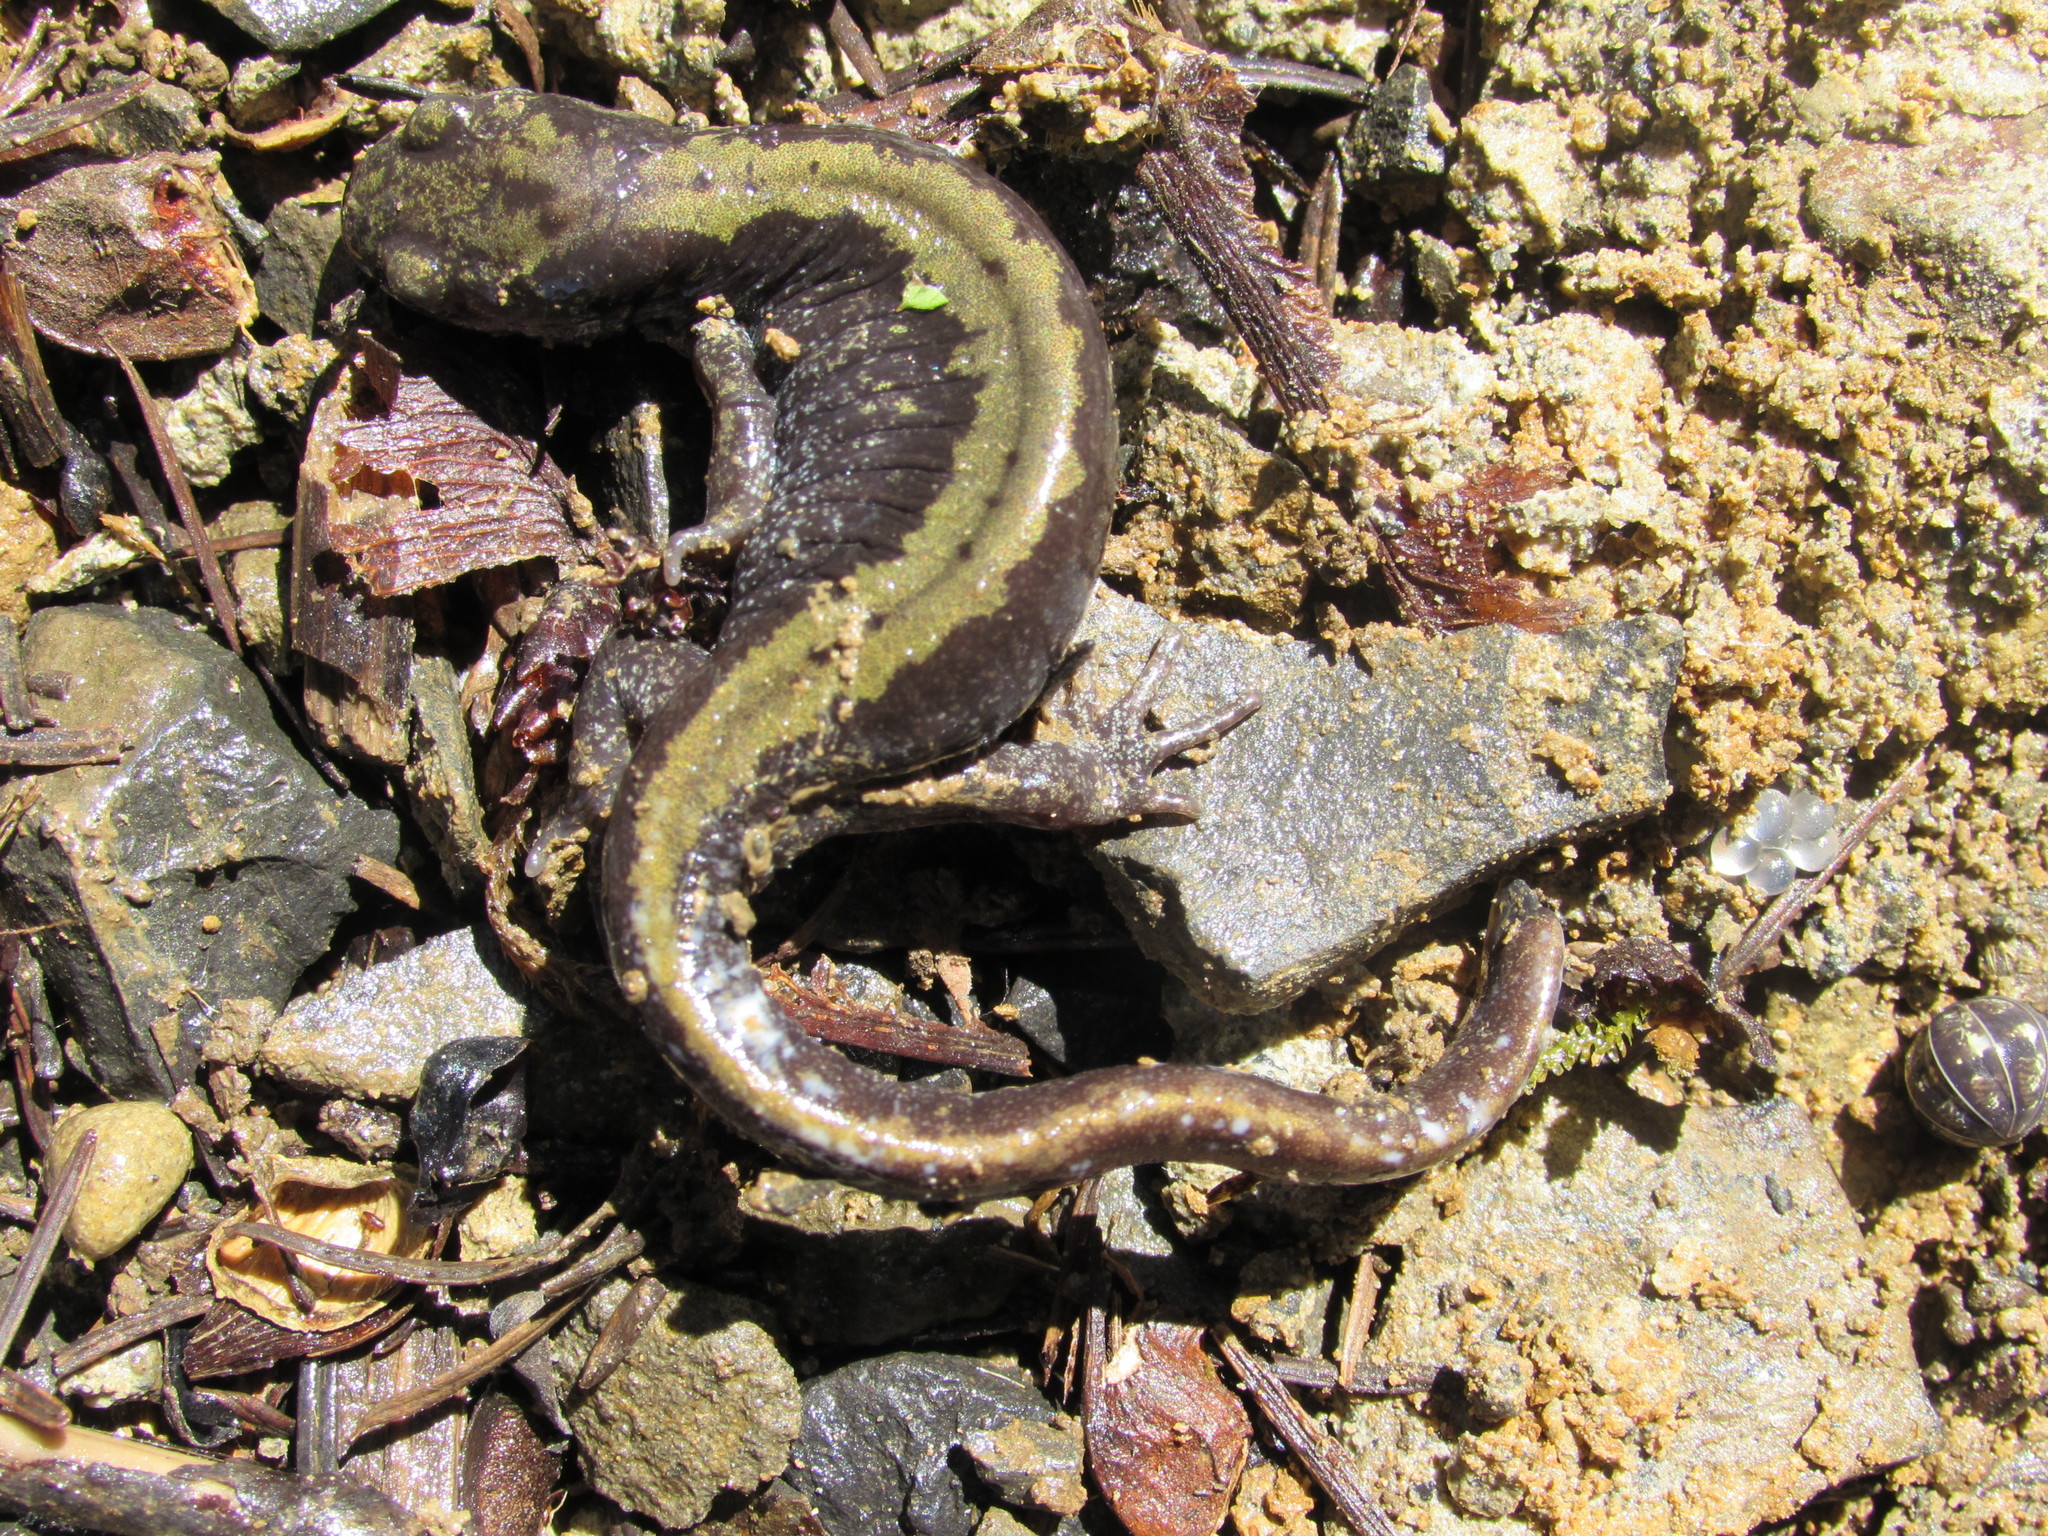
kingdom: Animalia
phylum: Chordata
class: Amphibia
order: Caudata
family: Ambystomatidae
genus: Ambystoma
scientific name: Ambystoma macrodactylum
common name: Long-toed salamander
